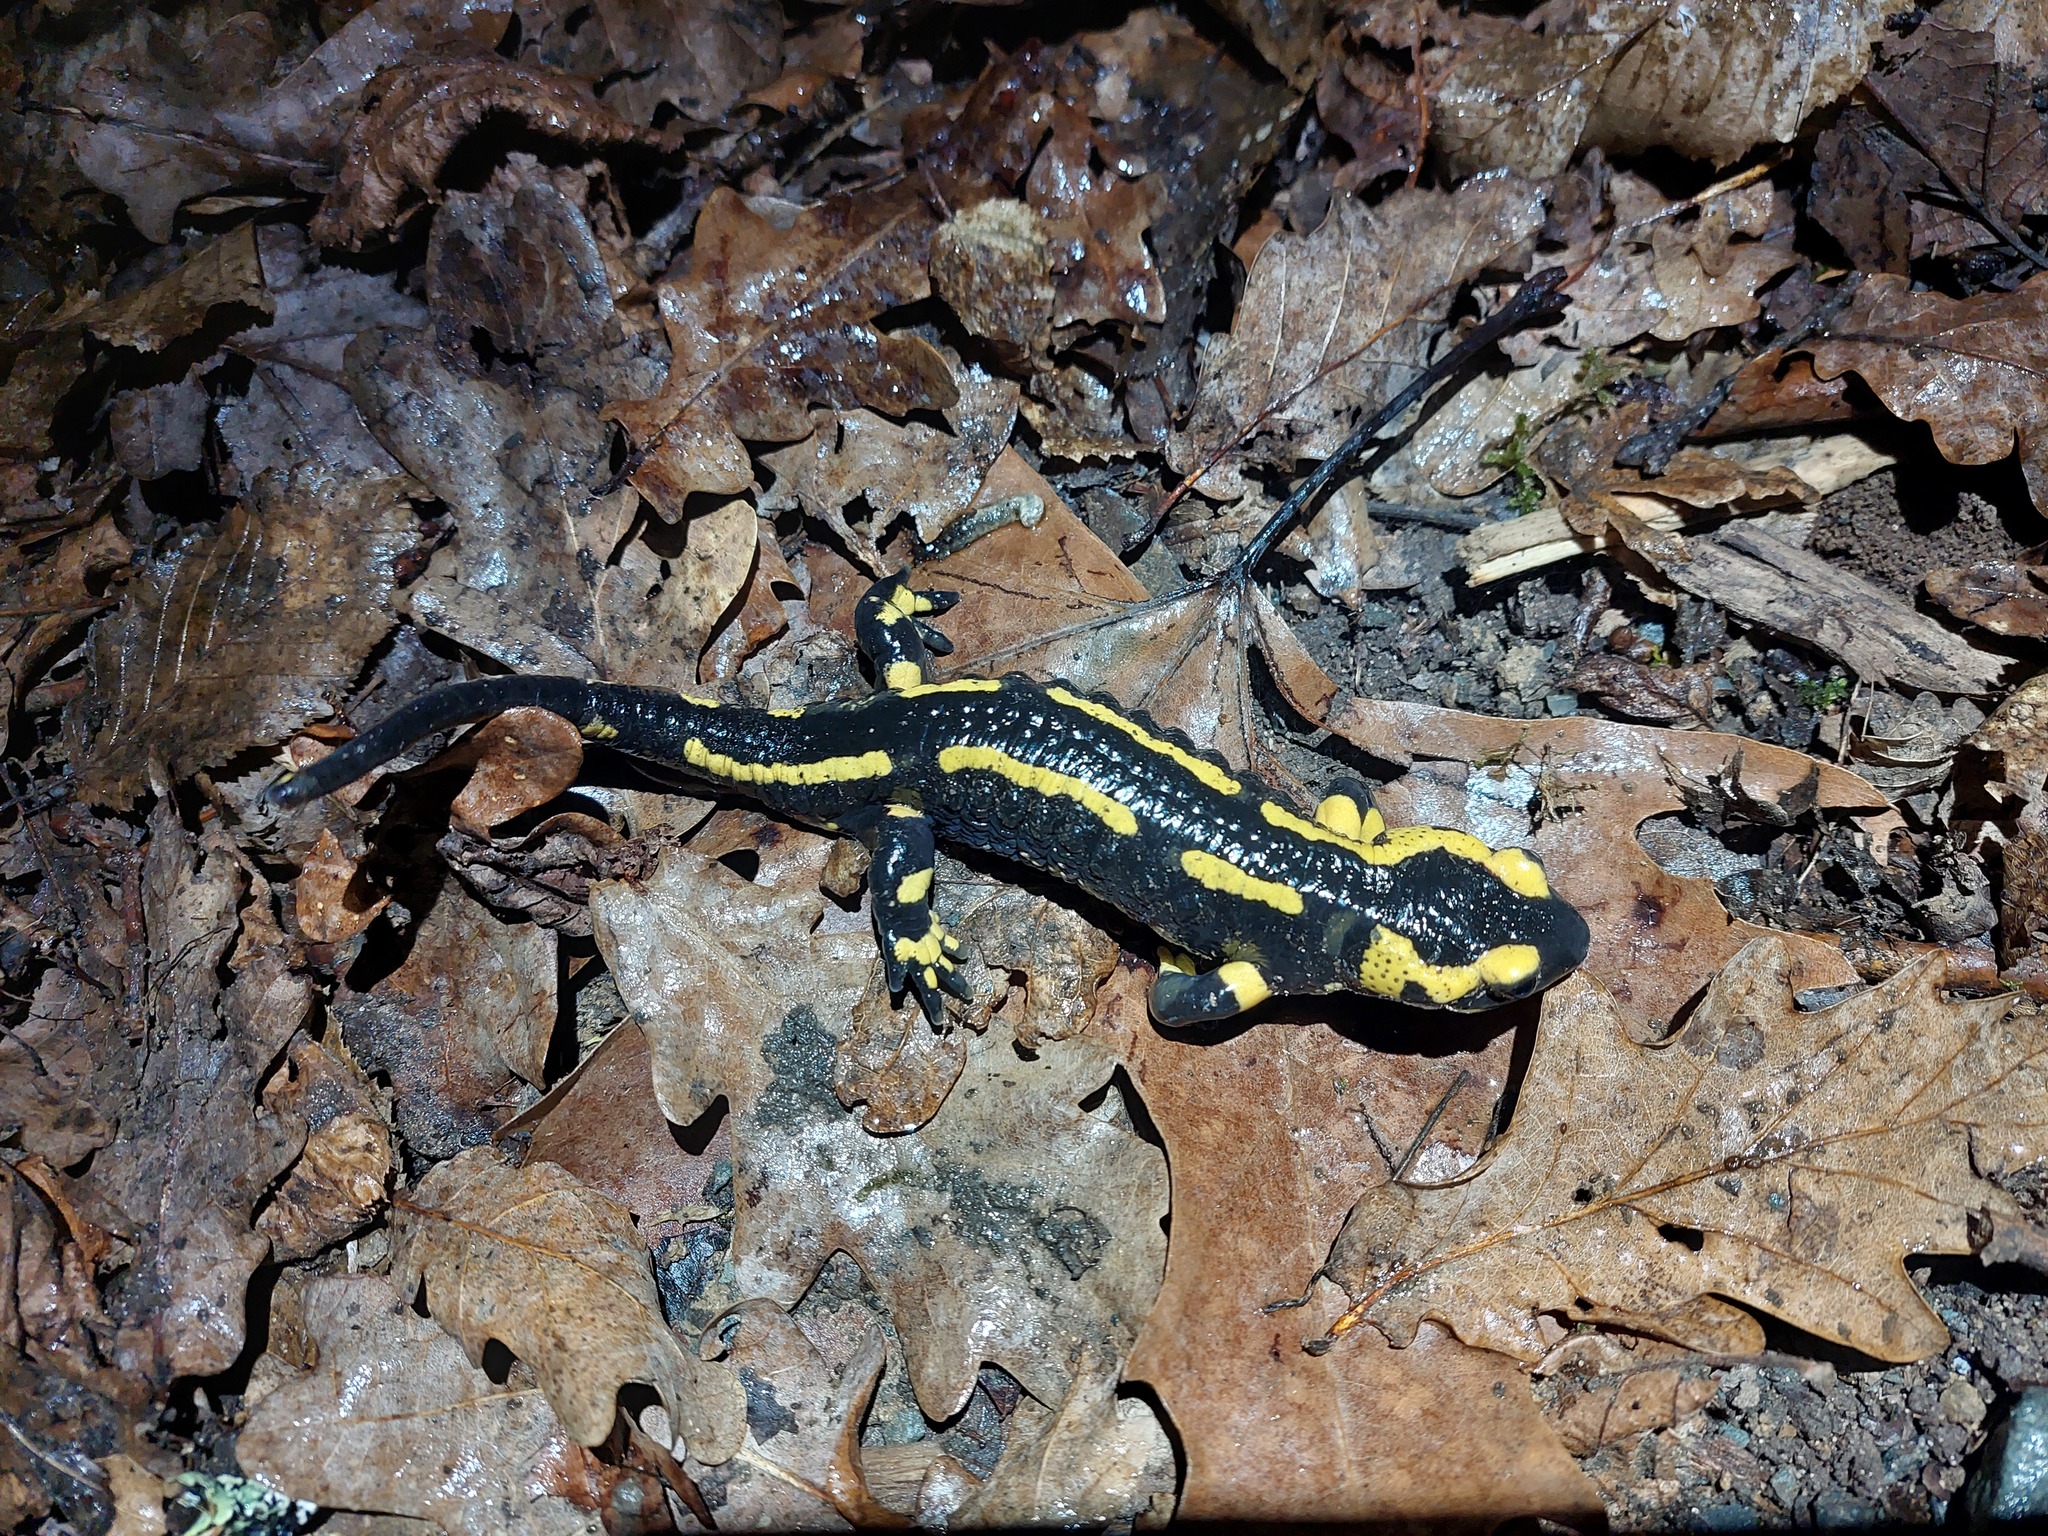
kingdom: Animalia
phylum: Chordata
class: Amphibia
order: Caudata
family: Salamandridae
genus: Salamandra
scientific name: Salamandra salamandra
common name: Fire salamander
